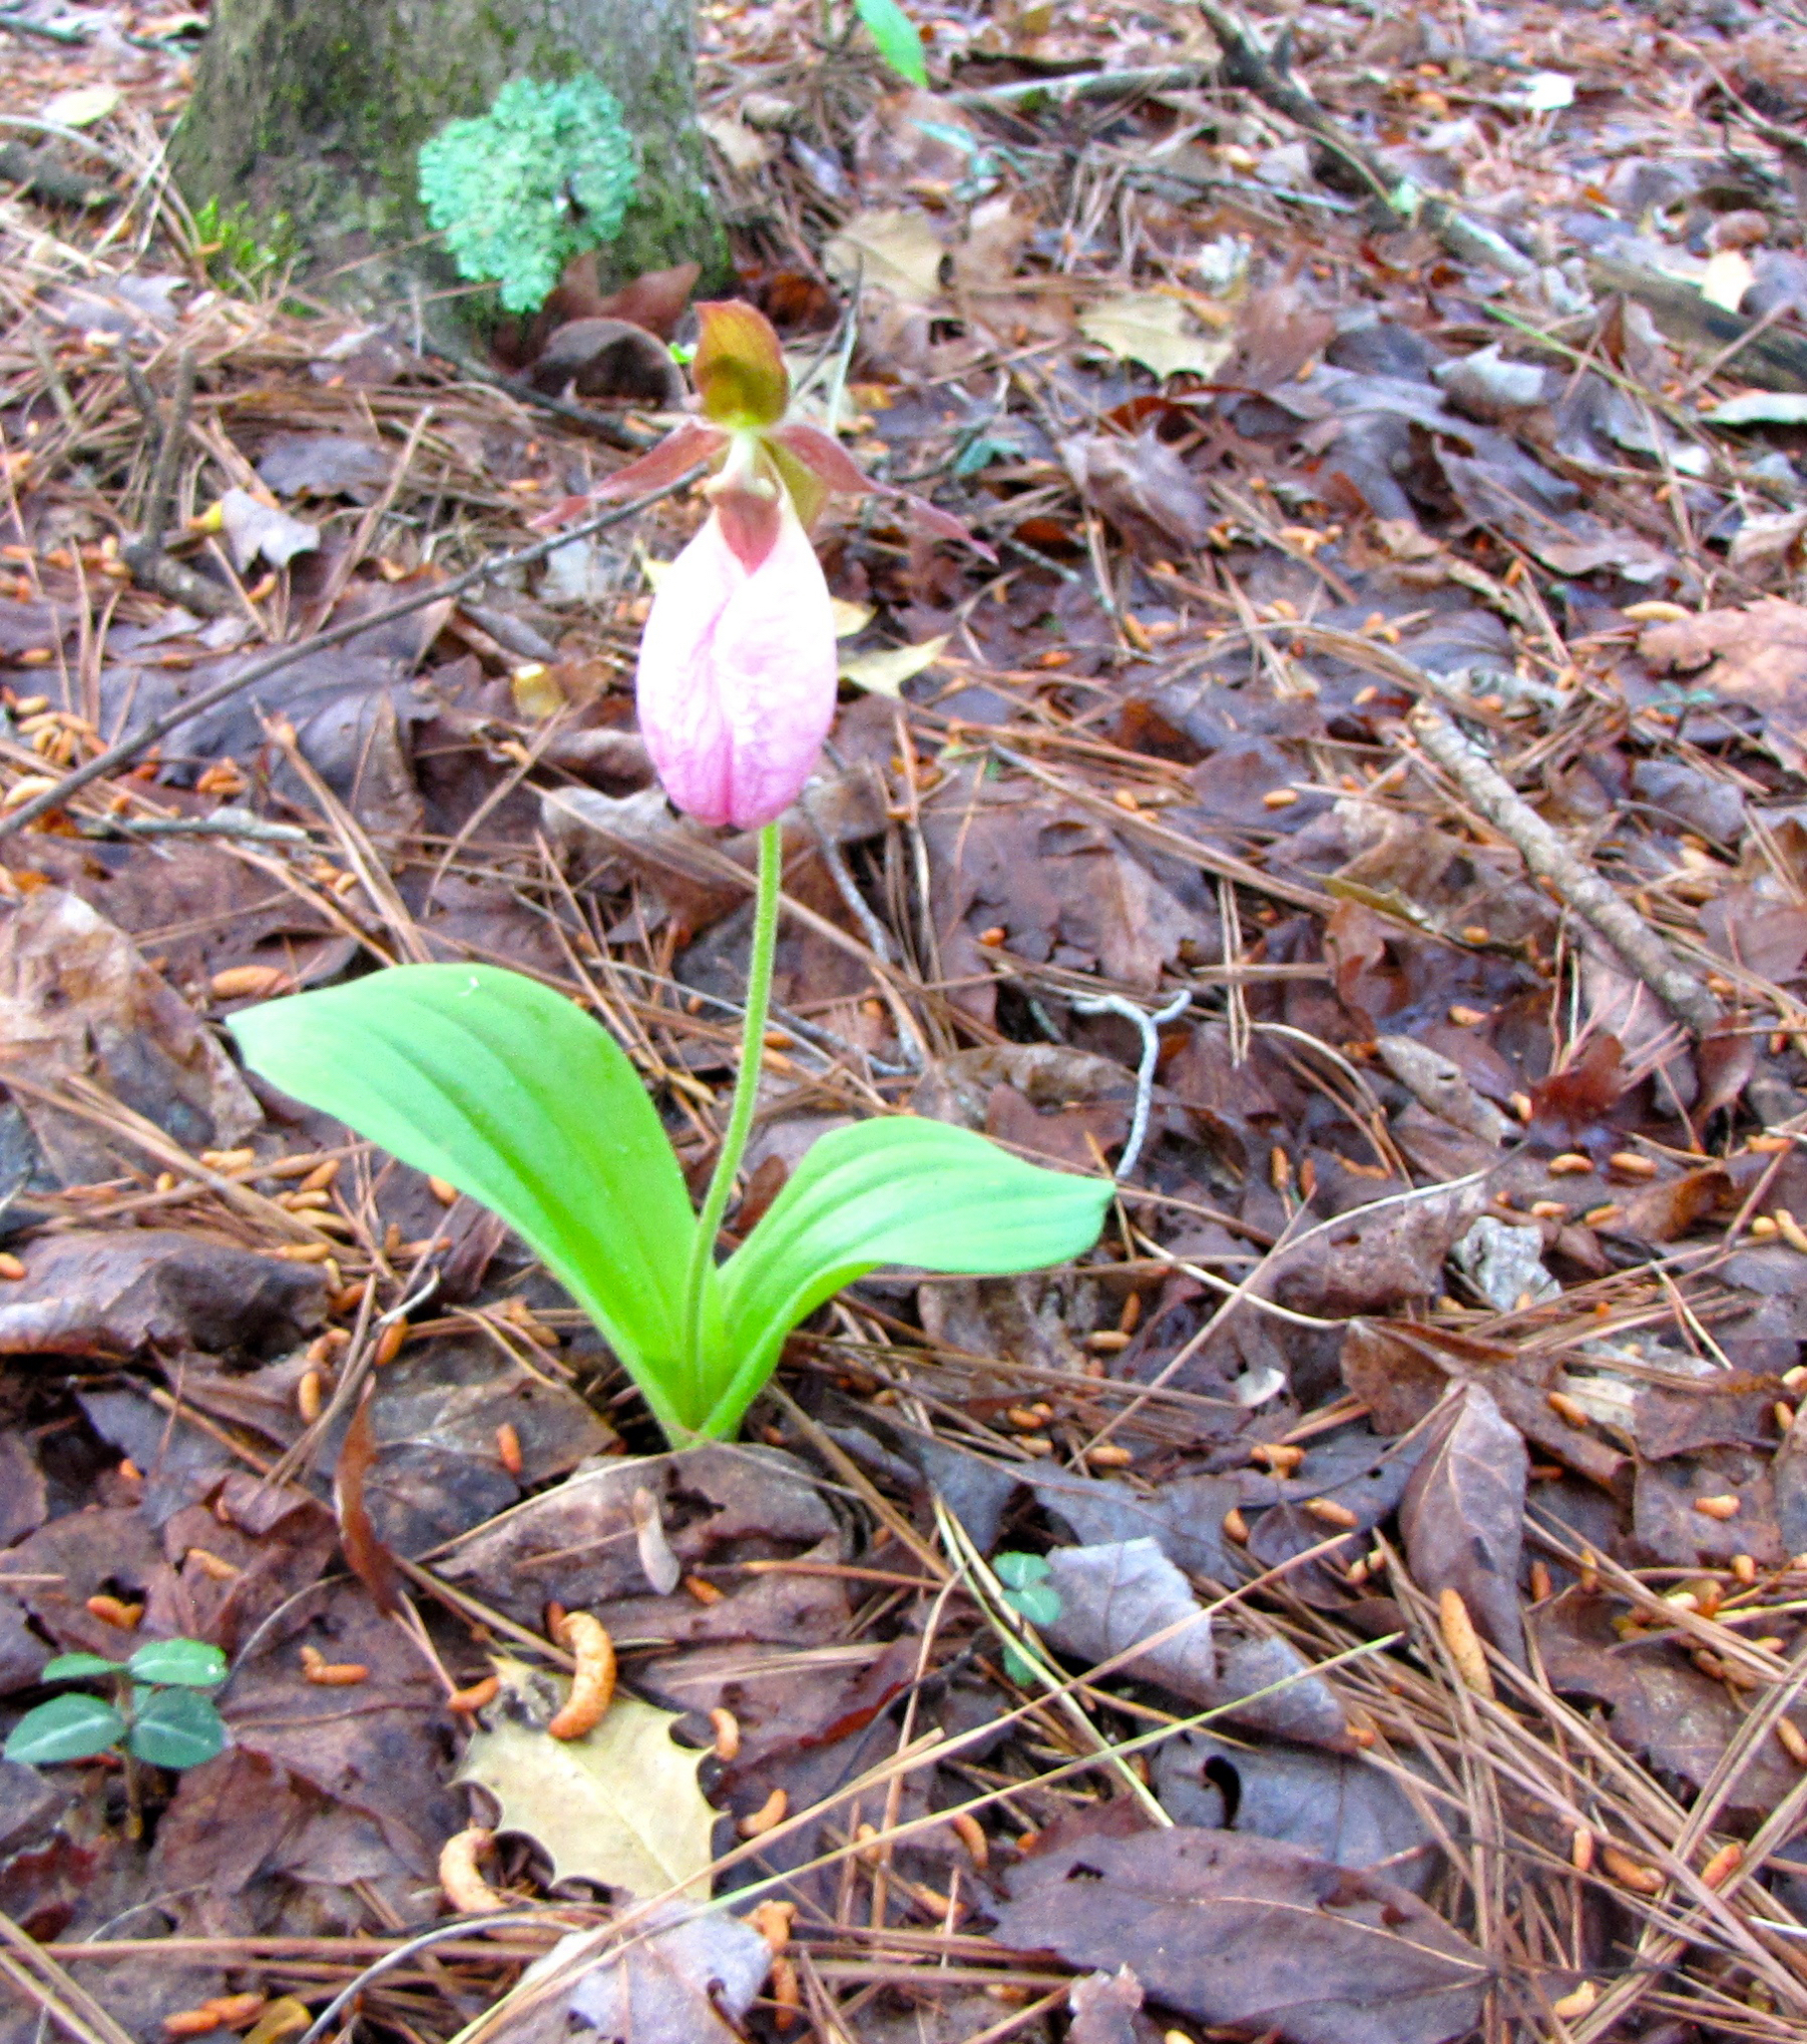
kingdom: Plantae
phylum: Tracheophyta
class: Liliopsida
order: Asparagales
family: Orchidaceae
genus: Cypripedium
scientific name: Cypripedium acaule
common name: Pink lady's-slipper
